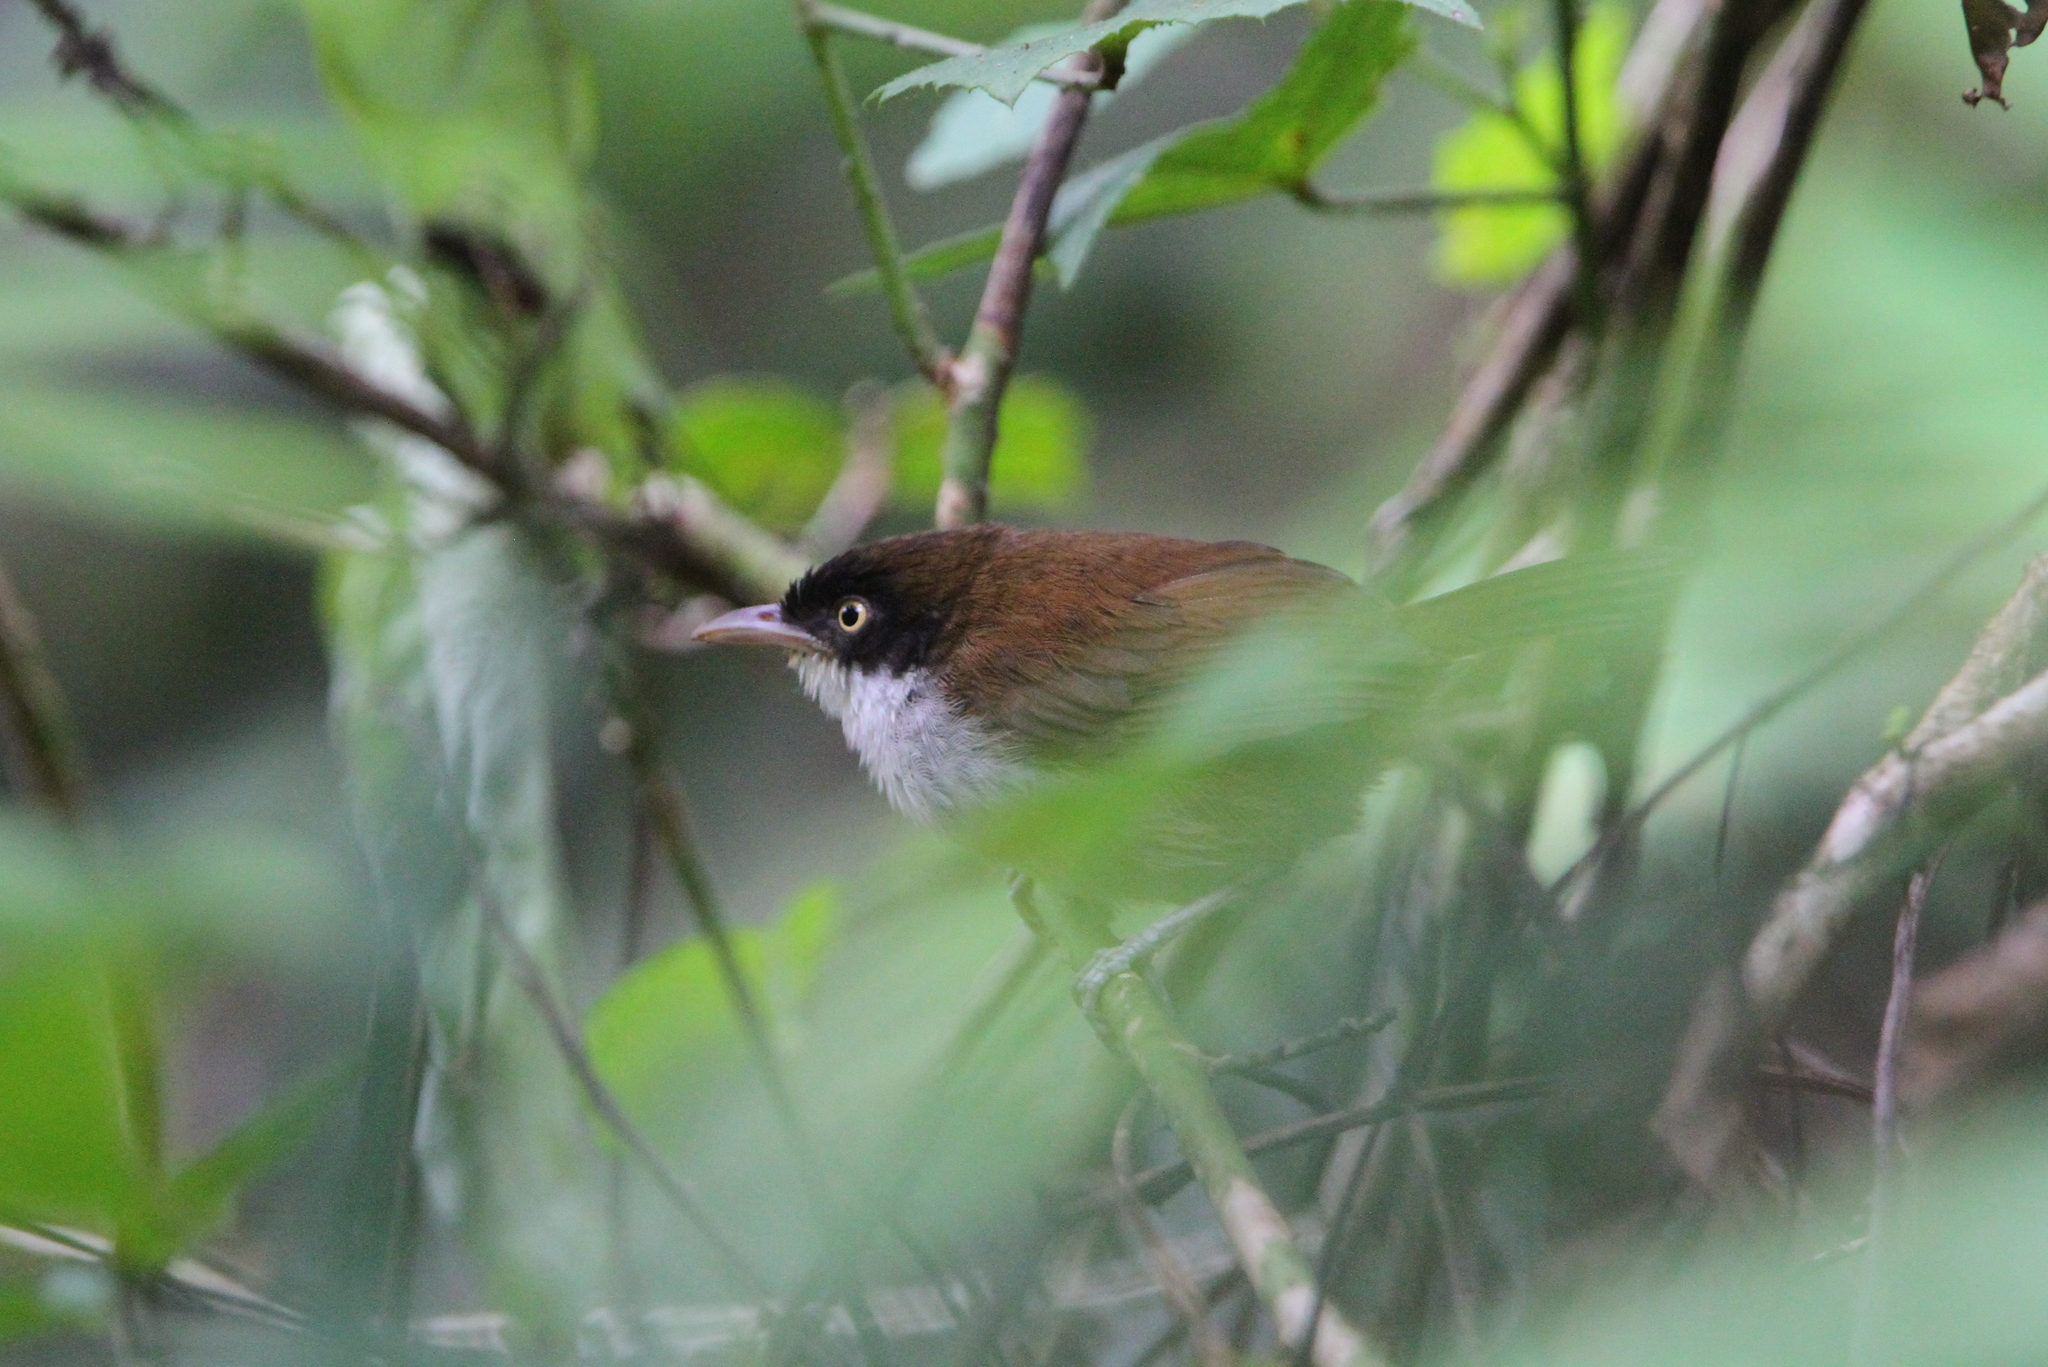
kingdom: Animalia
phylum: Chordata
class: Aves
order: Passeriformes
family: Timaliidae
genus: Rhopocichla
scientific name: Rhopocichla atriceps
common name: Dark-fronted babbler
